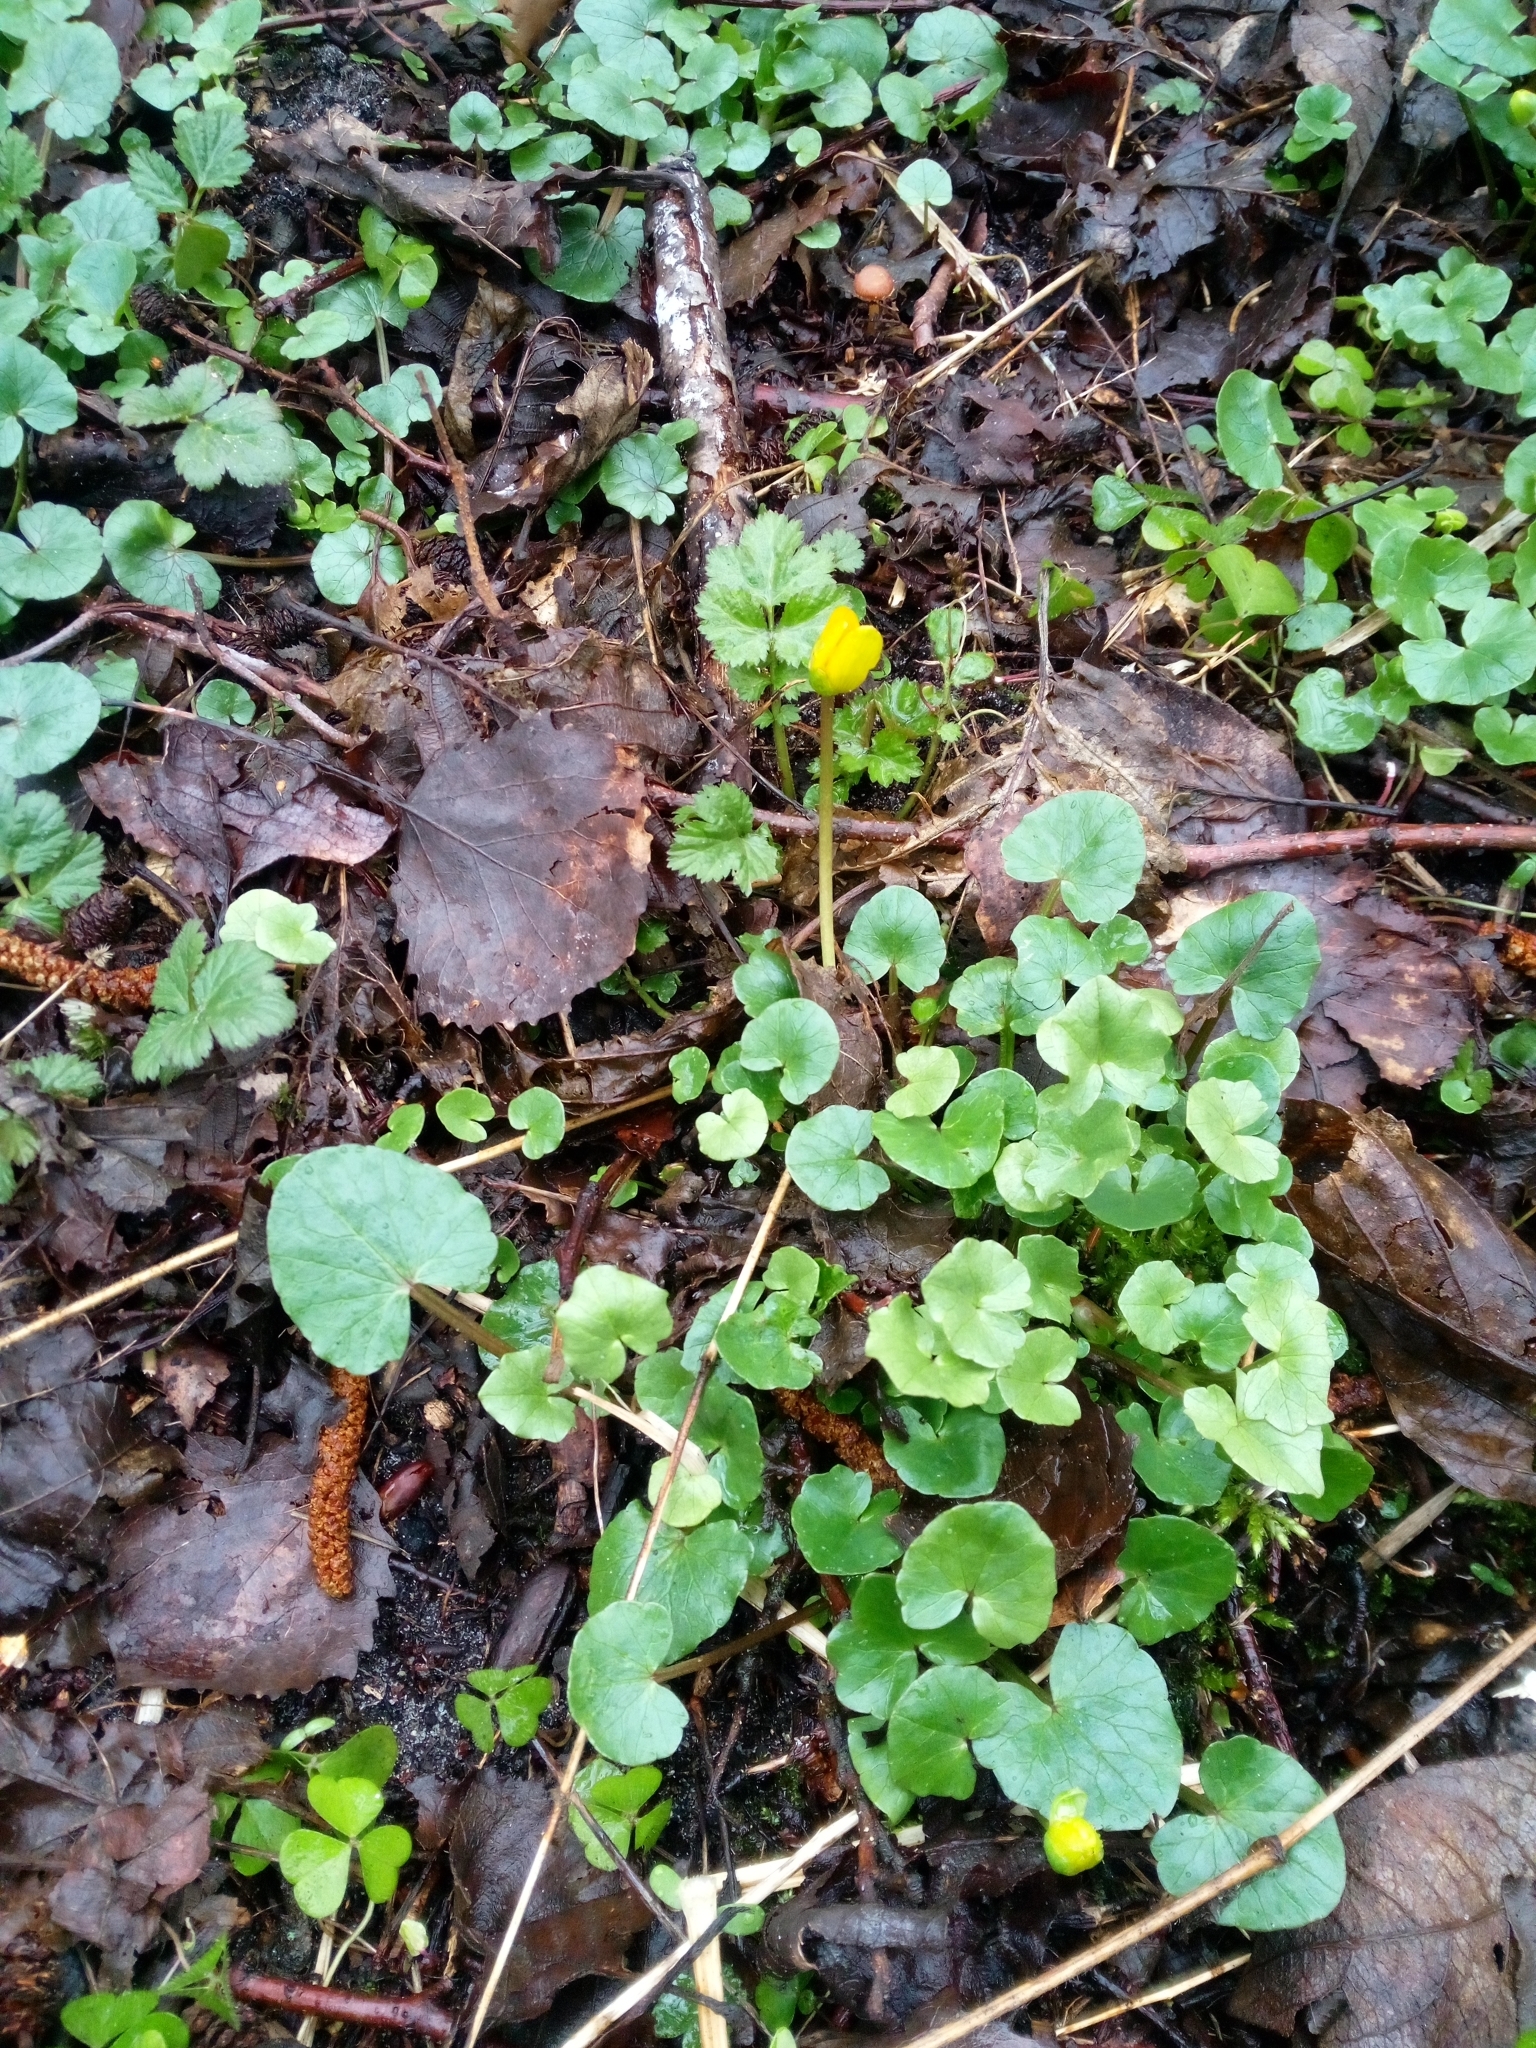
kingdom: Plantae
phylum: Tracheophyta
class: Magnoliopsida
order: Ranunculales
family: Ranunculaceae
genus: Ficaria
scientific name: Ficaria verna
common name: Lesser celandine
